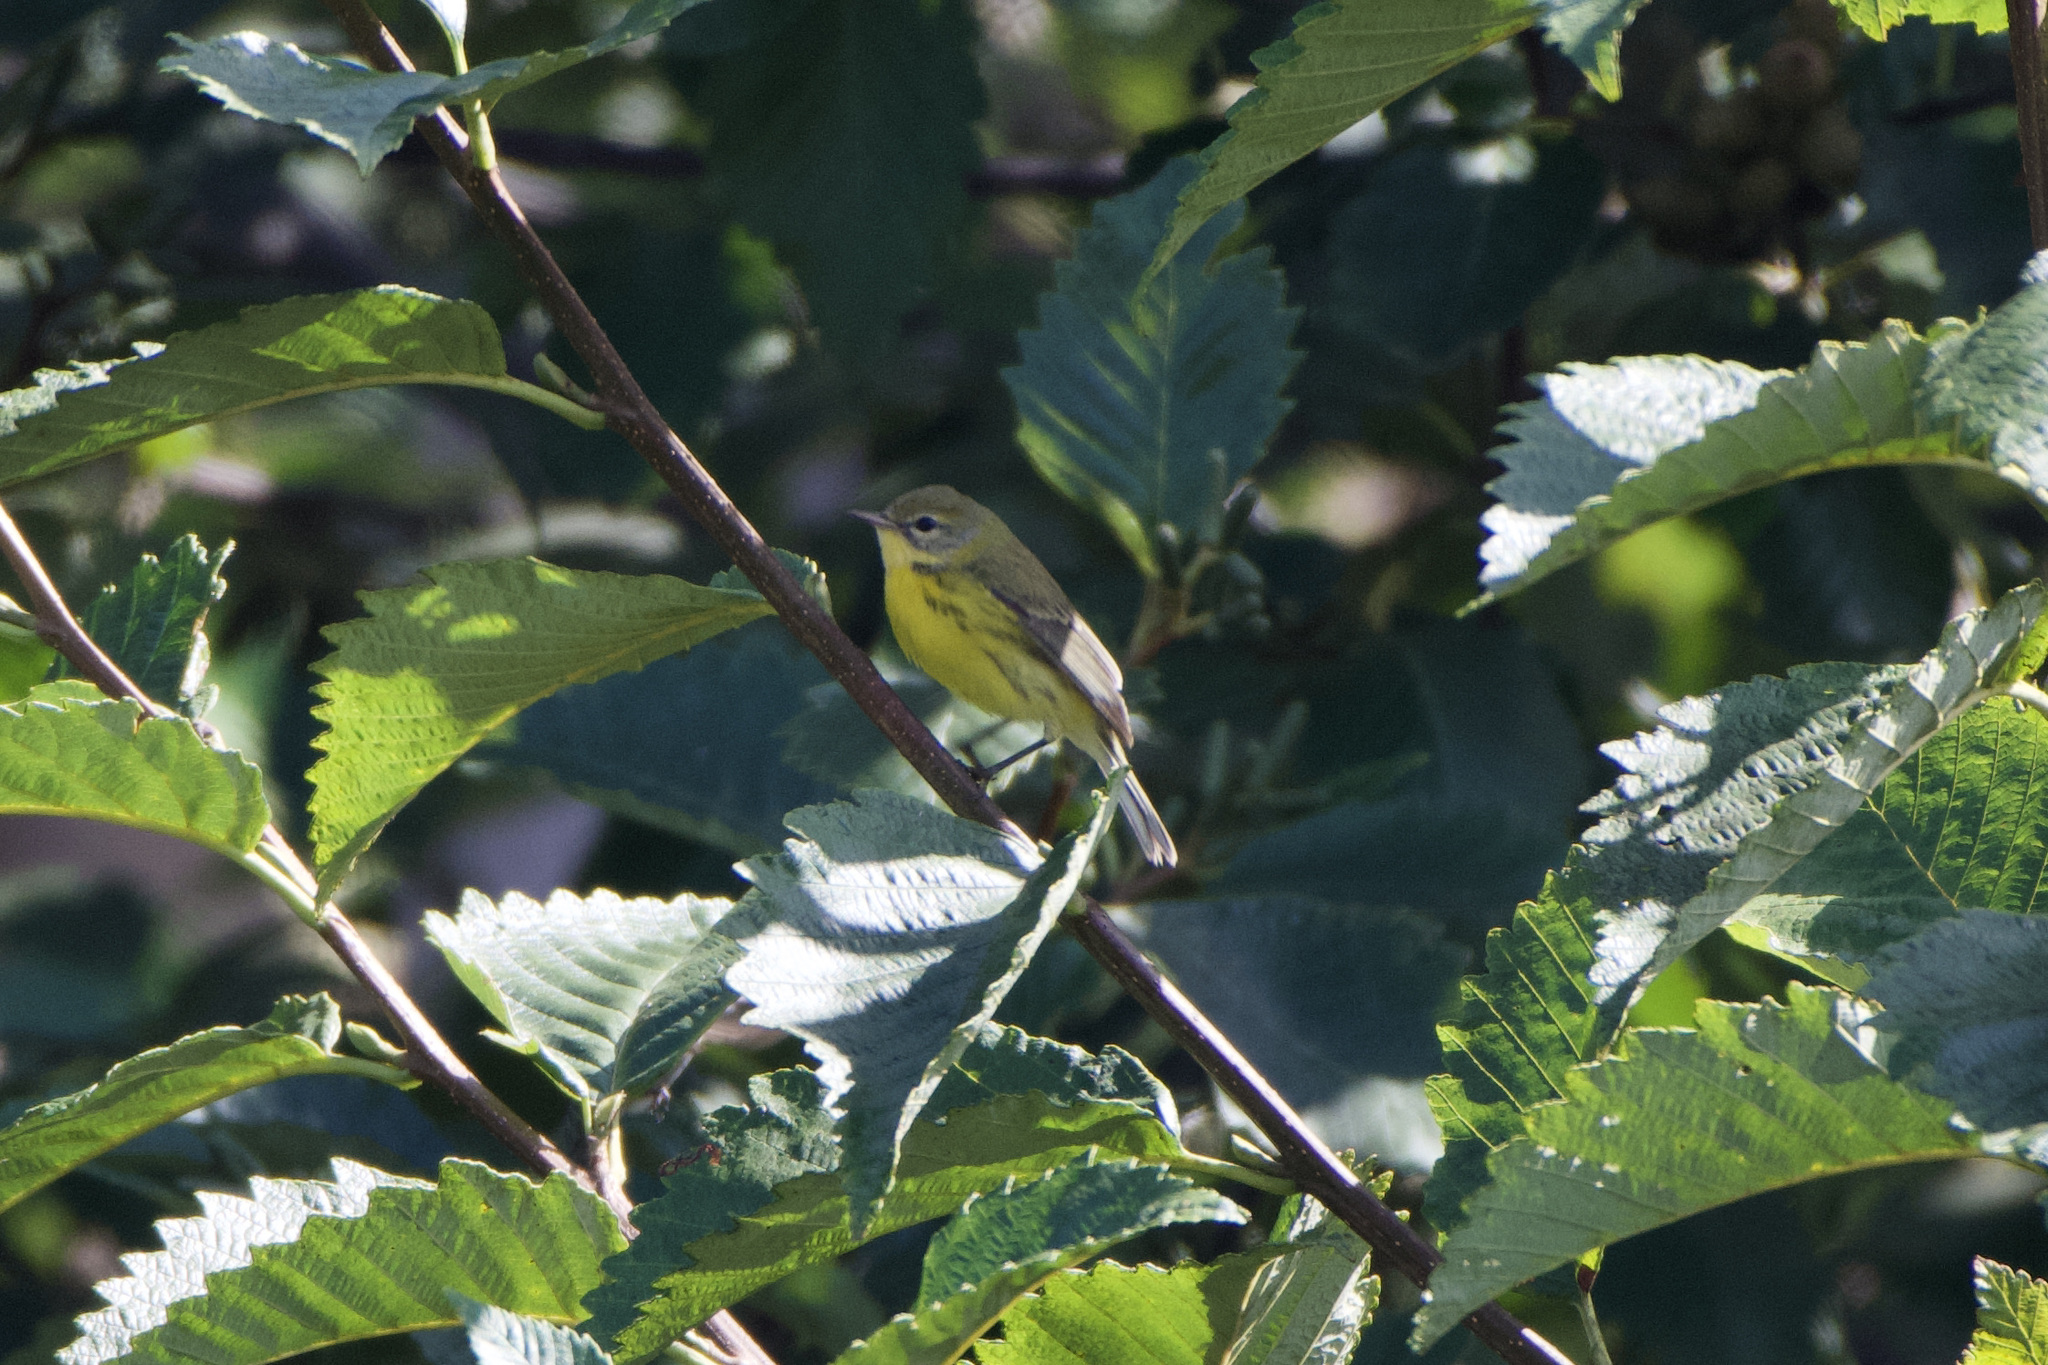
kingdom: Animalia
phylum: Chordata
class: Aves
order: Passeriformes
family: Parulidae
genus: Setophaga
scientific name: Setophaga discolor
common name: Prairie warbler
